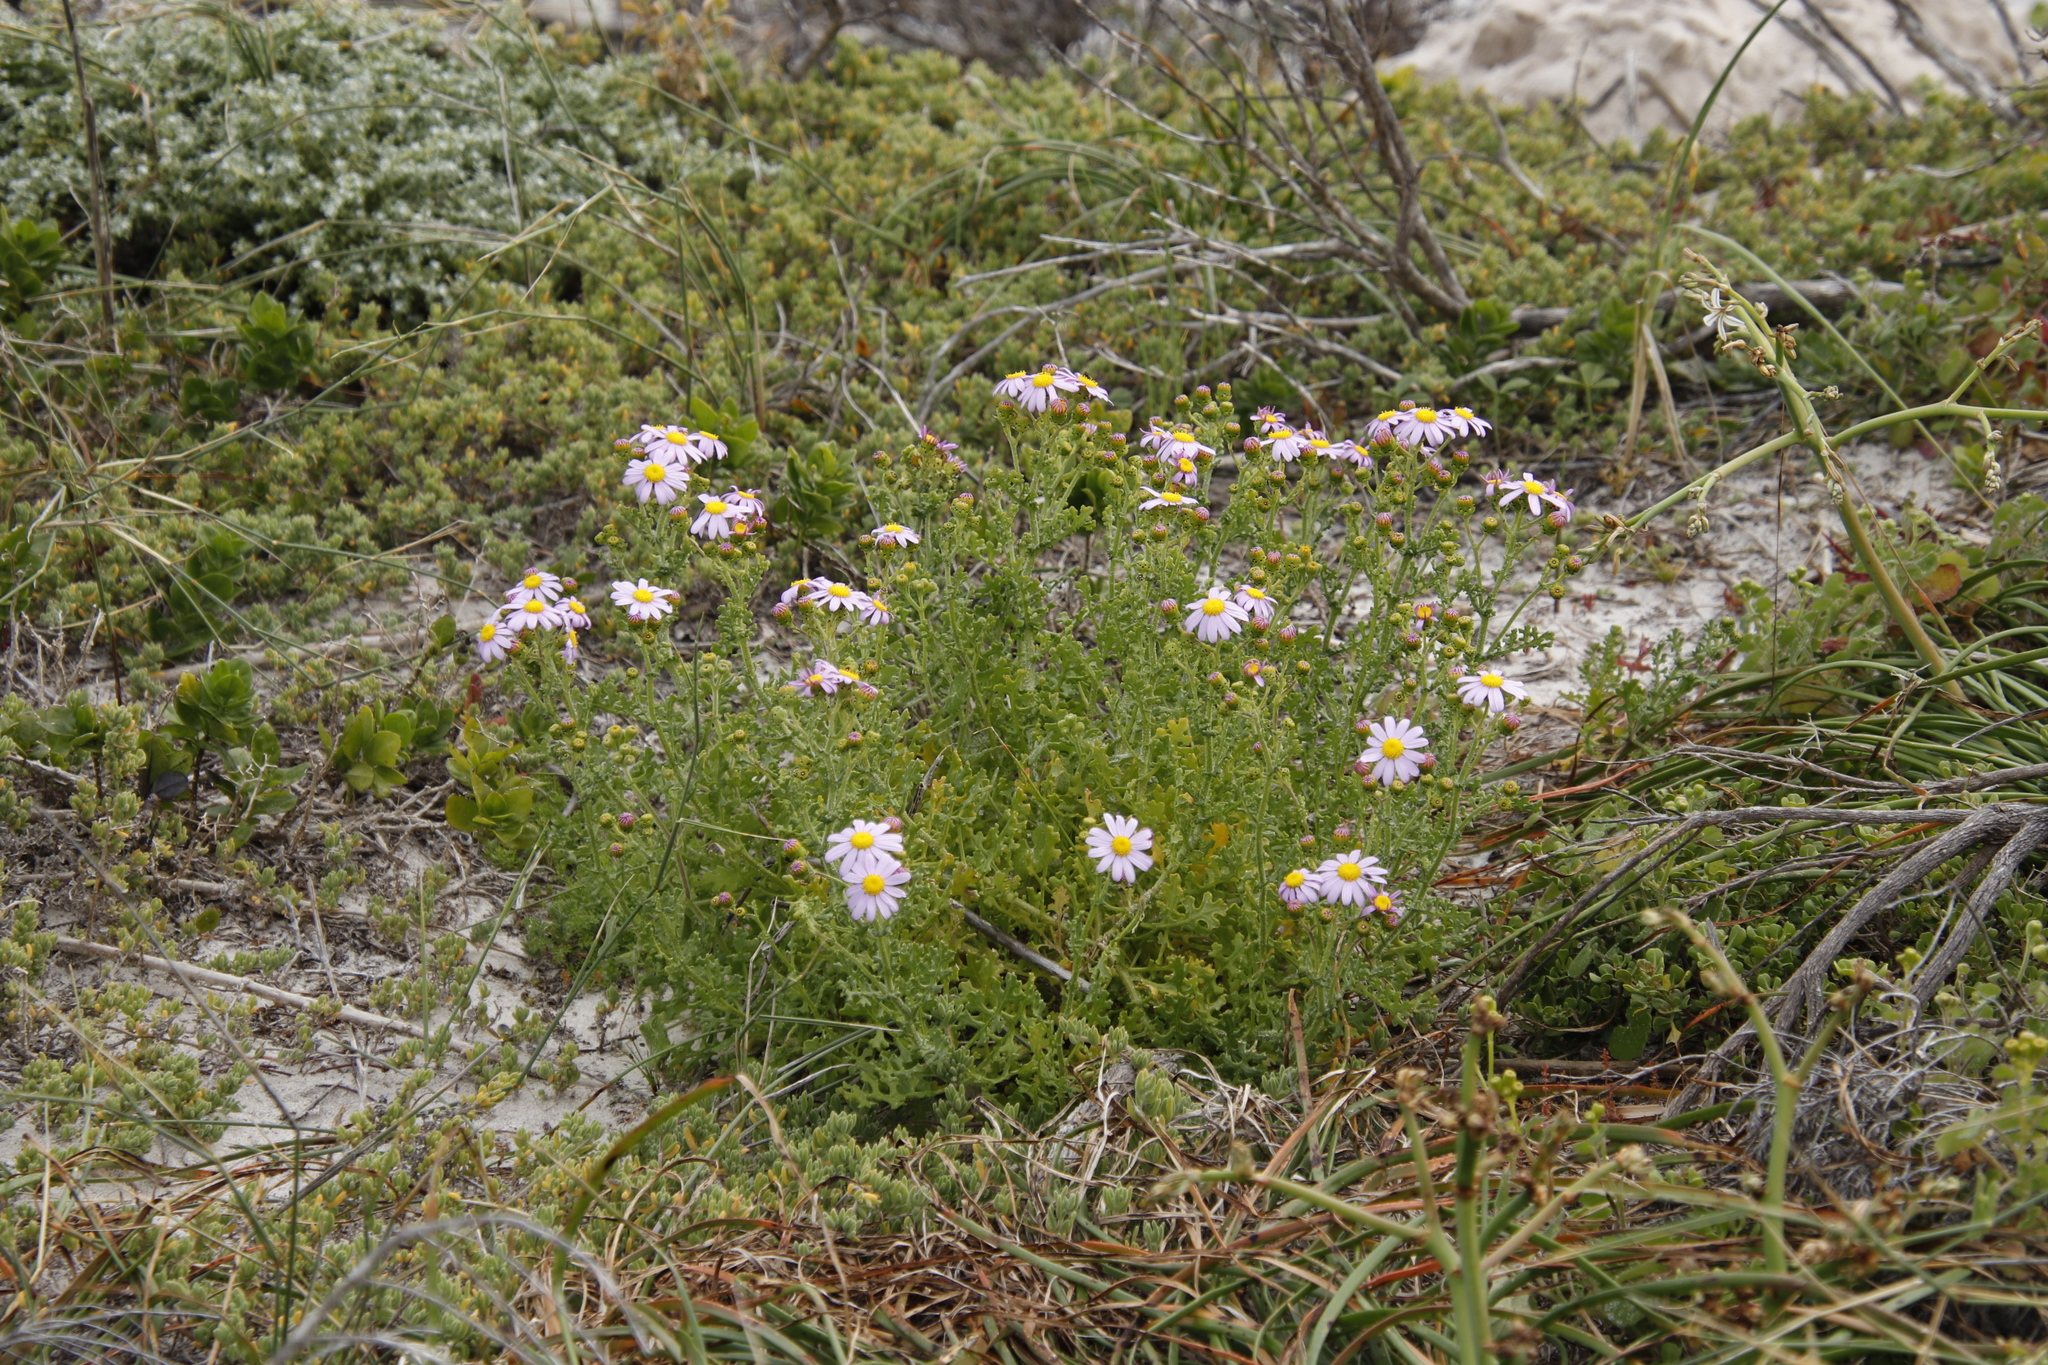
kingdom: Plantae
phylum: Tracheophyta
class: Magnoliopsida
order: Asterales
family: Asteraceae
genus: Senecio
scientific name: Senecio elegans
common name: Purple groundsel
